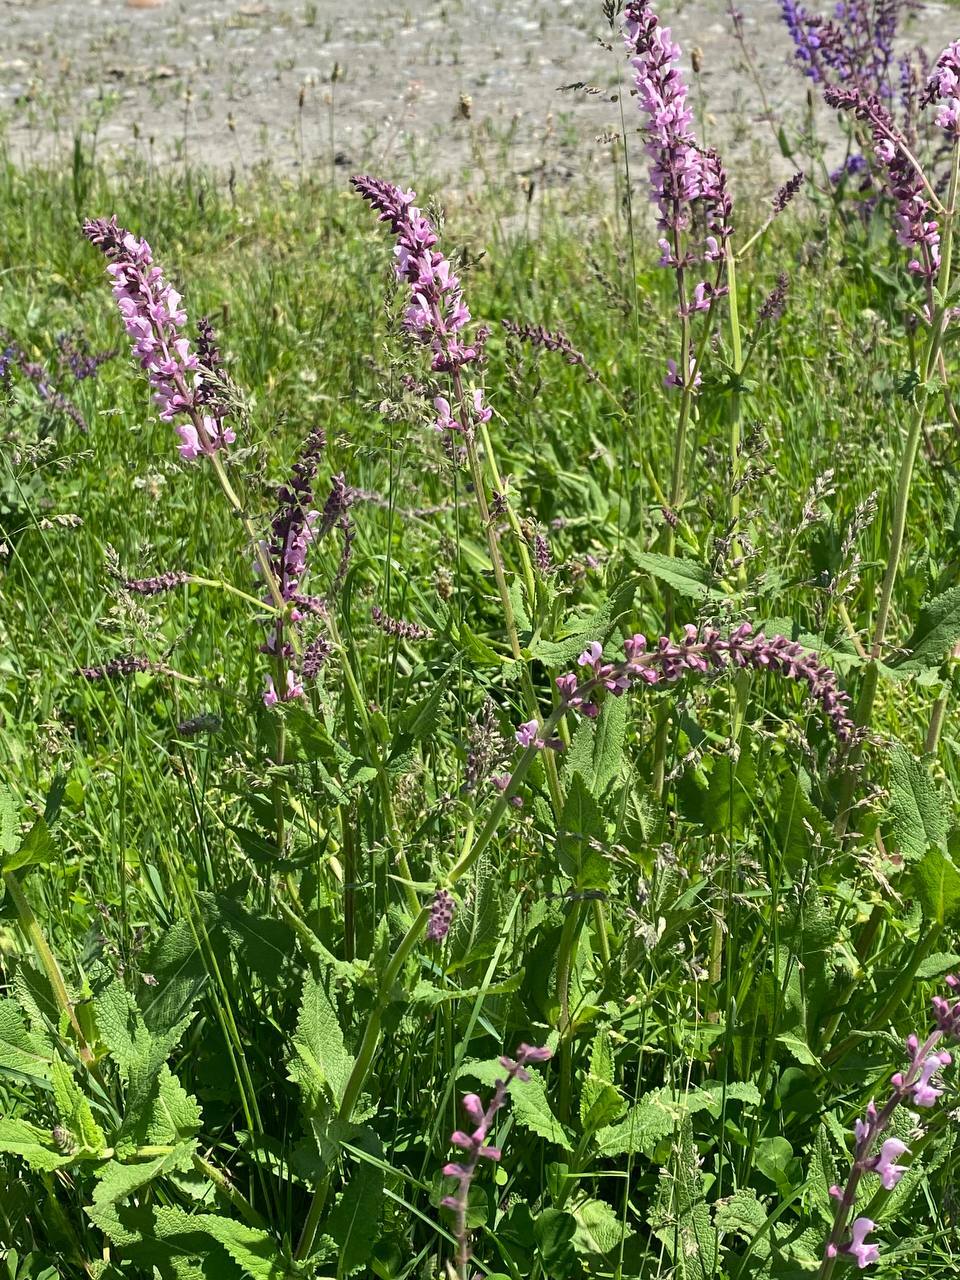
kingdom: Plantae
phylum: Tracheophyta
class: Magnoliopsida
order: Lamiales
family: Lamiaceae
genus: Salvia
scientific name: Salvia nemorosa
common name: Balkan clary
